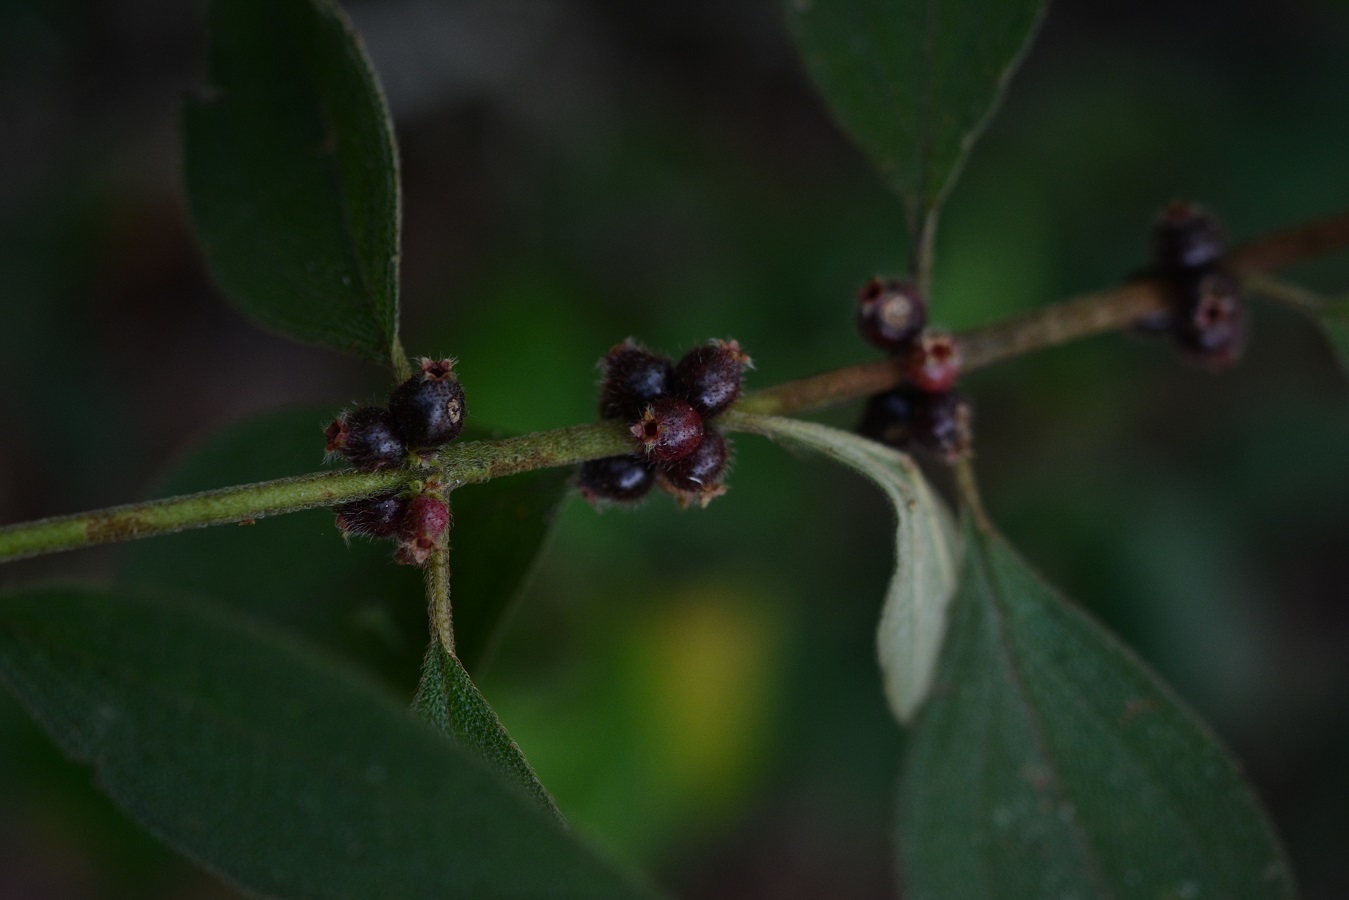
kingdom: Plantae
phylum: Tracheophyta
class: Magnoliopsida
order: Myrtales
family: Melastomataceae
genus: Miconia
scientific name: Miconia sericea
